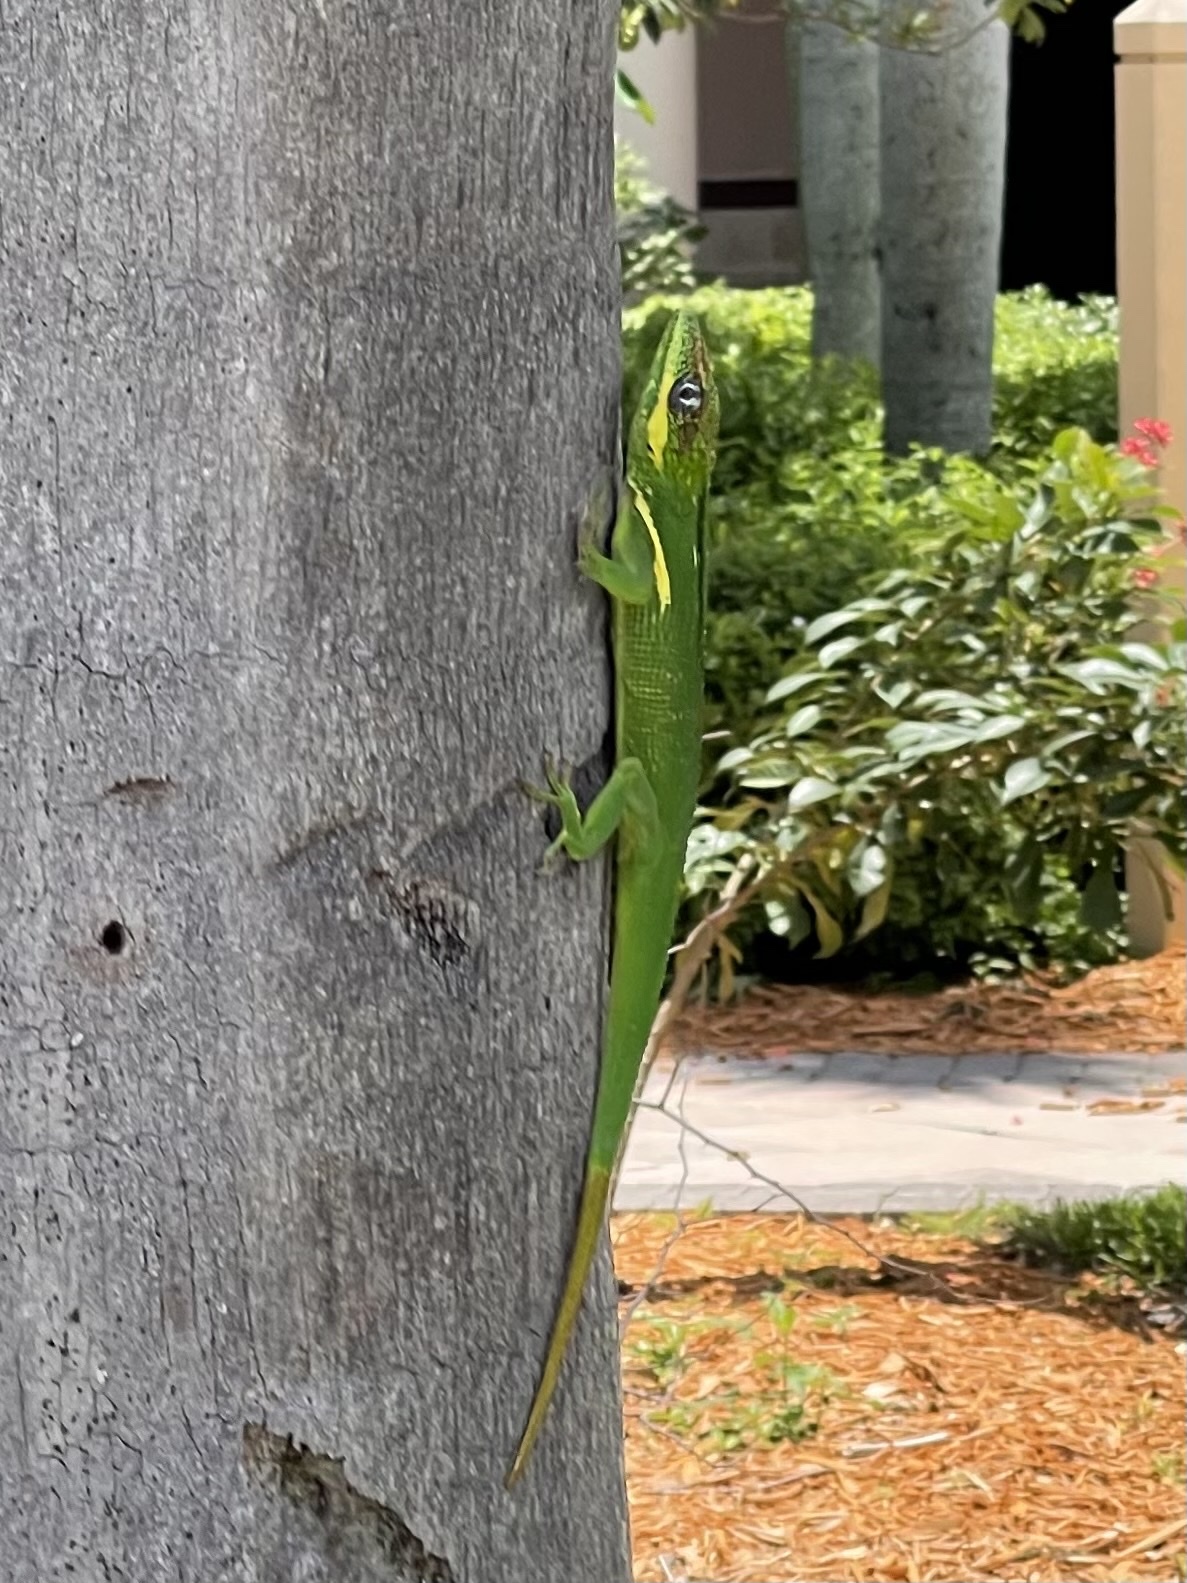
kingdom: Animalia
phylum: Chordata
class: Squamata
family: Dactyloidae
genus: Anolis
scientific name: Anolis equestris
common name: Knight anole
